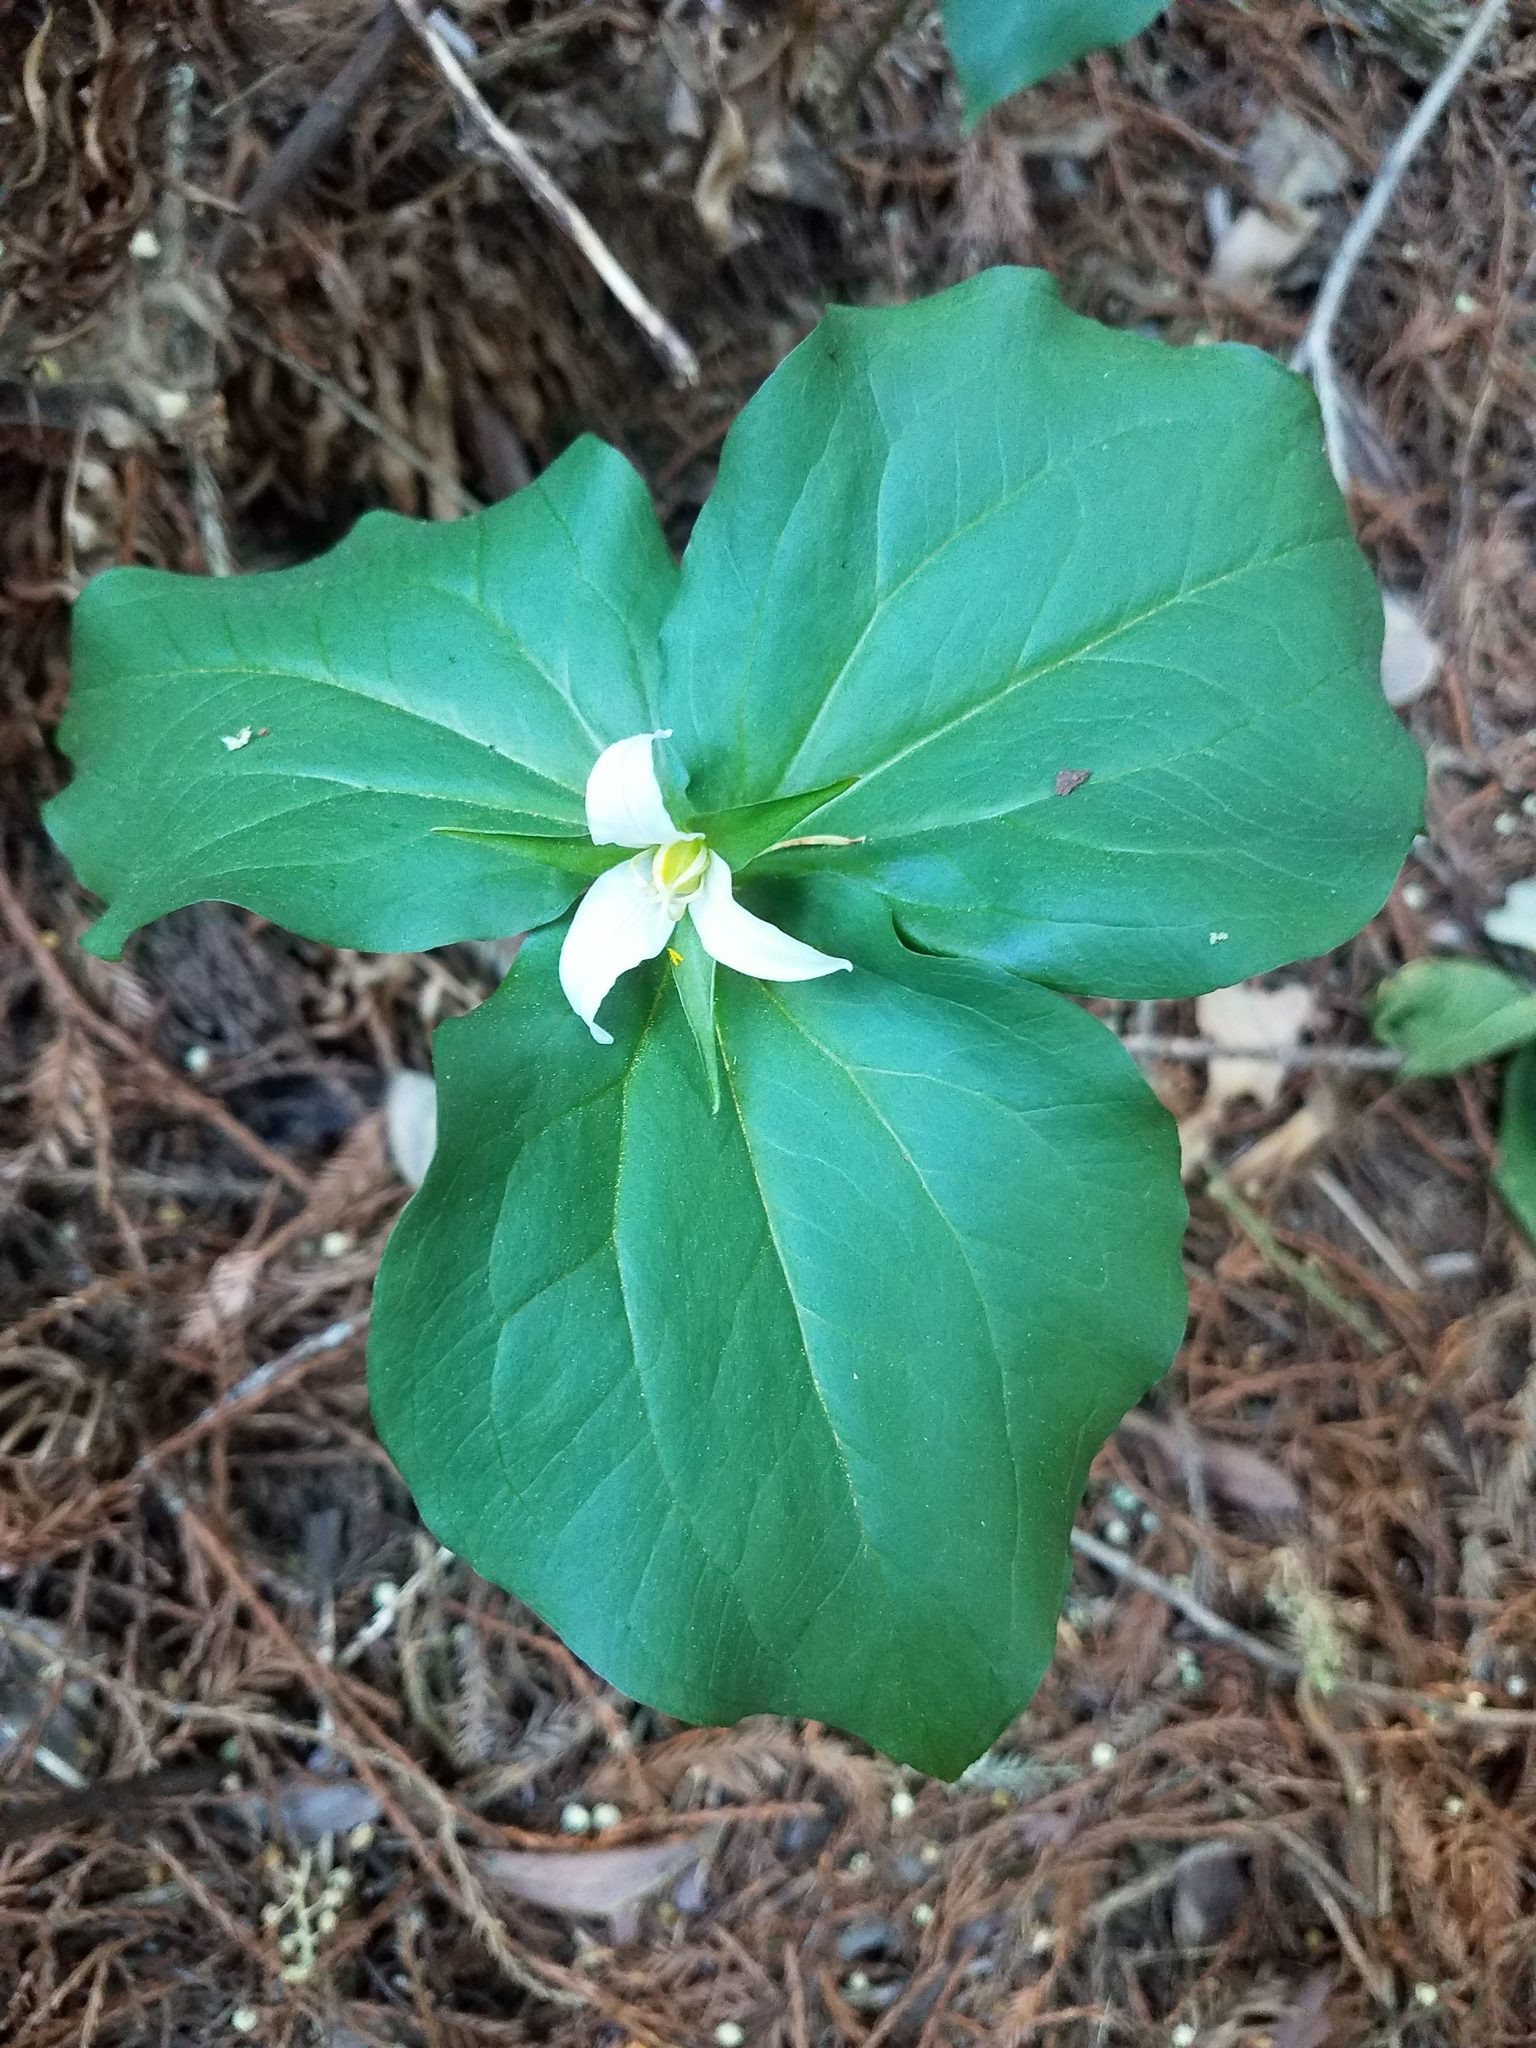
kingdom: Plantae
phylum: Tracheophyta
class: Liliopsida
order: Liliales
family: Melanthiaceae
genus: Trillium
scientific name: Trillium ovatum
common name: Pacific trillium
